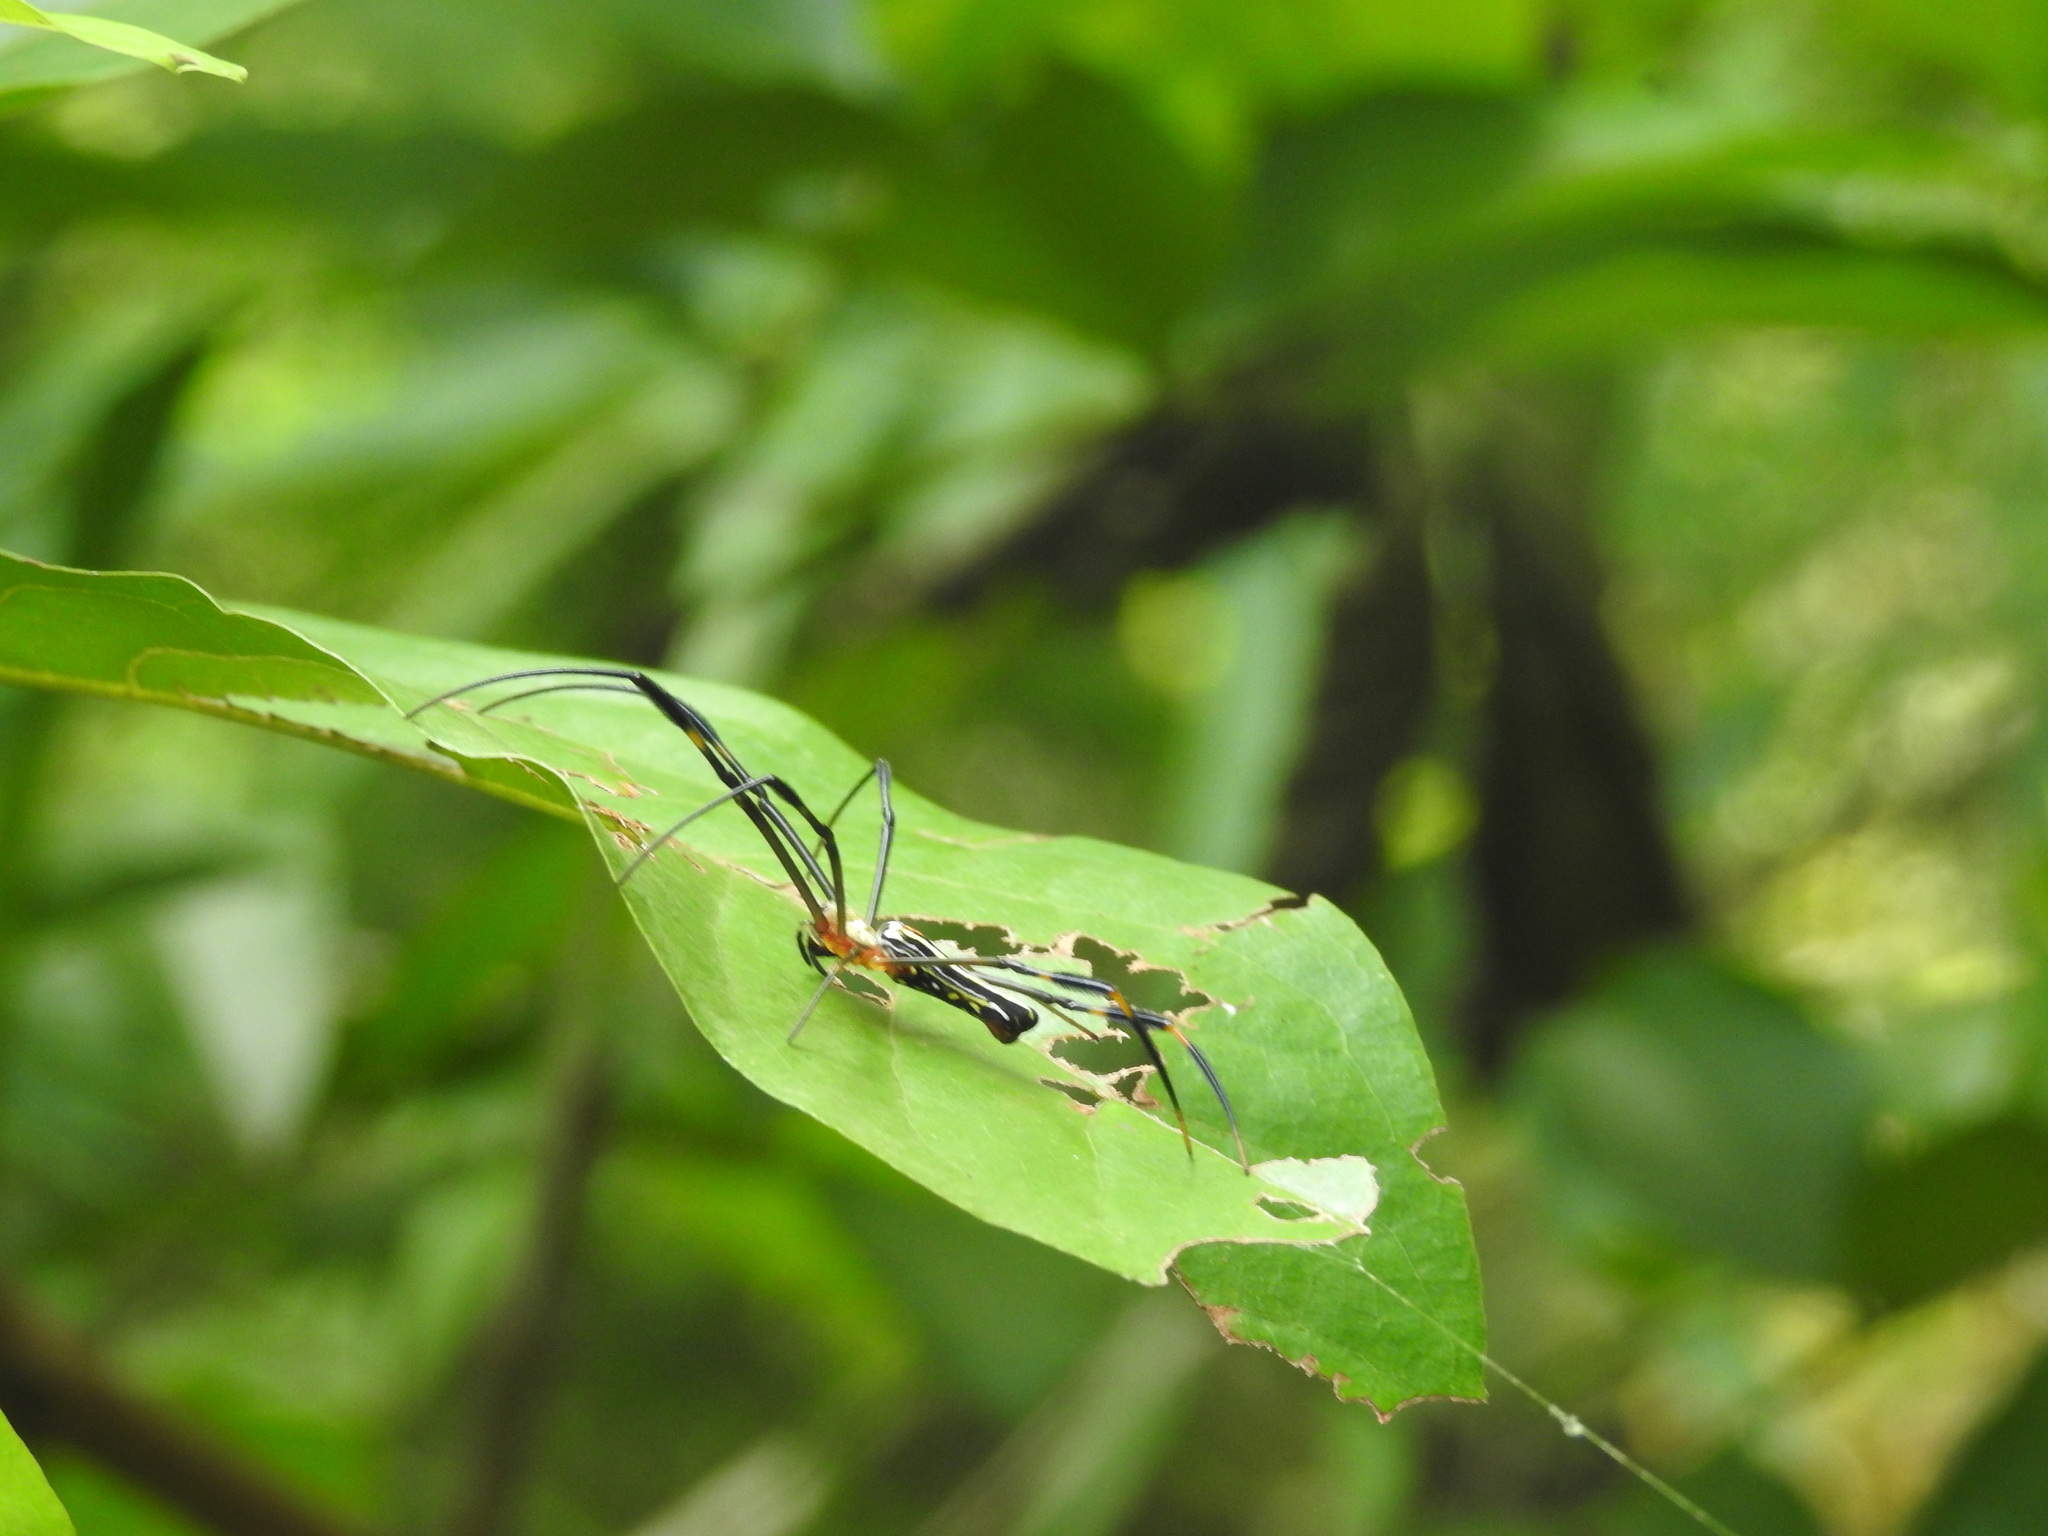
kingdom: Animalia
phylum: Arthropoda
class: Arachnida
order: Araneae
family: Araneidae
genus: Nephila
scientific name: Nephila pilipes
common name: Giant golden orb weaver
